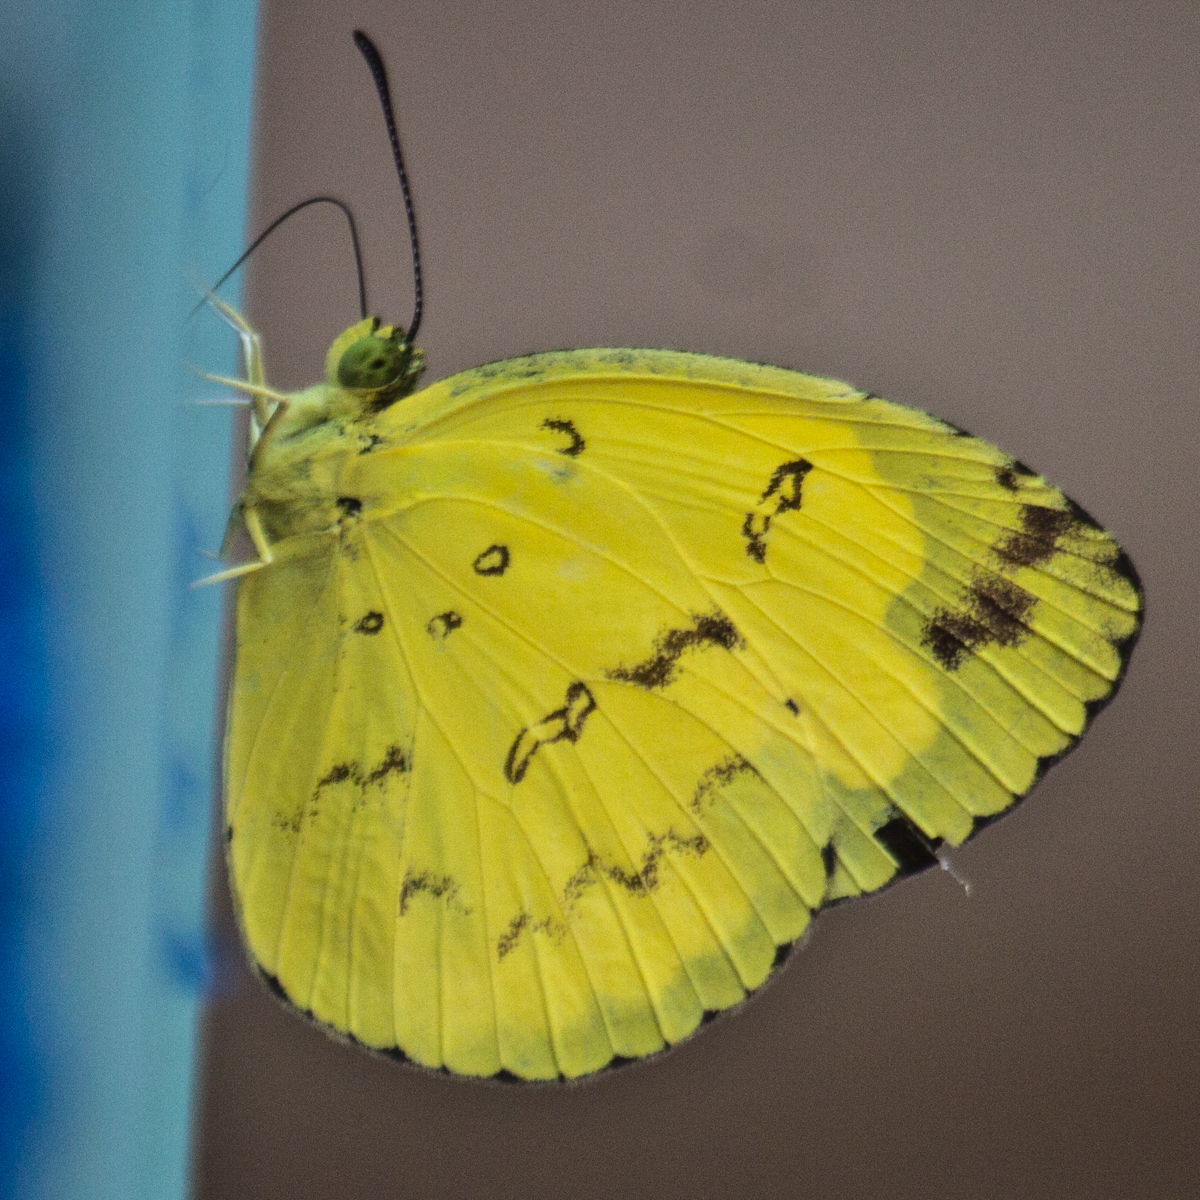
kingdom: Animalia
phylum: Arthropoda
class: Insecta
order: Lepidoptera
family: Pieridae
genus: Eurema
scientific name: Eurema andersoni
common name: One-spot yellow grass
